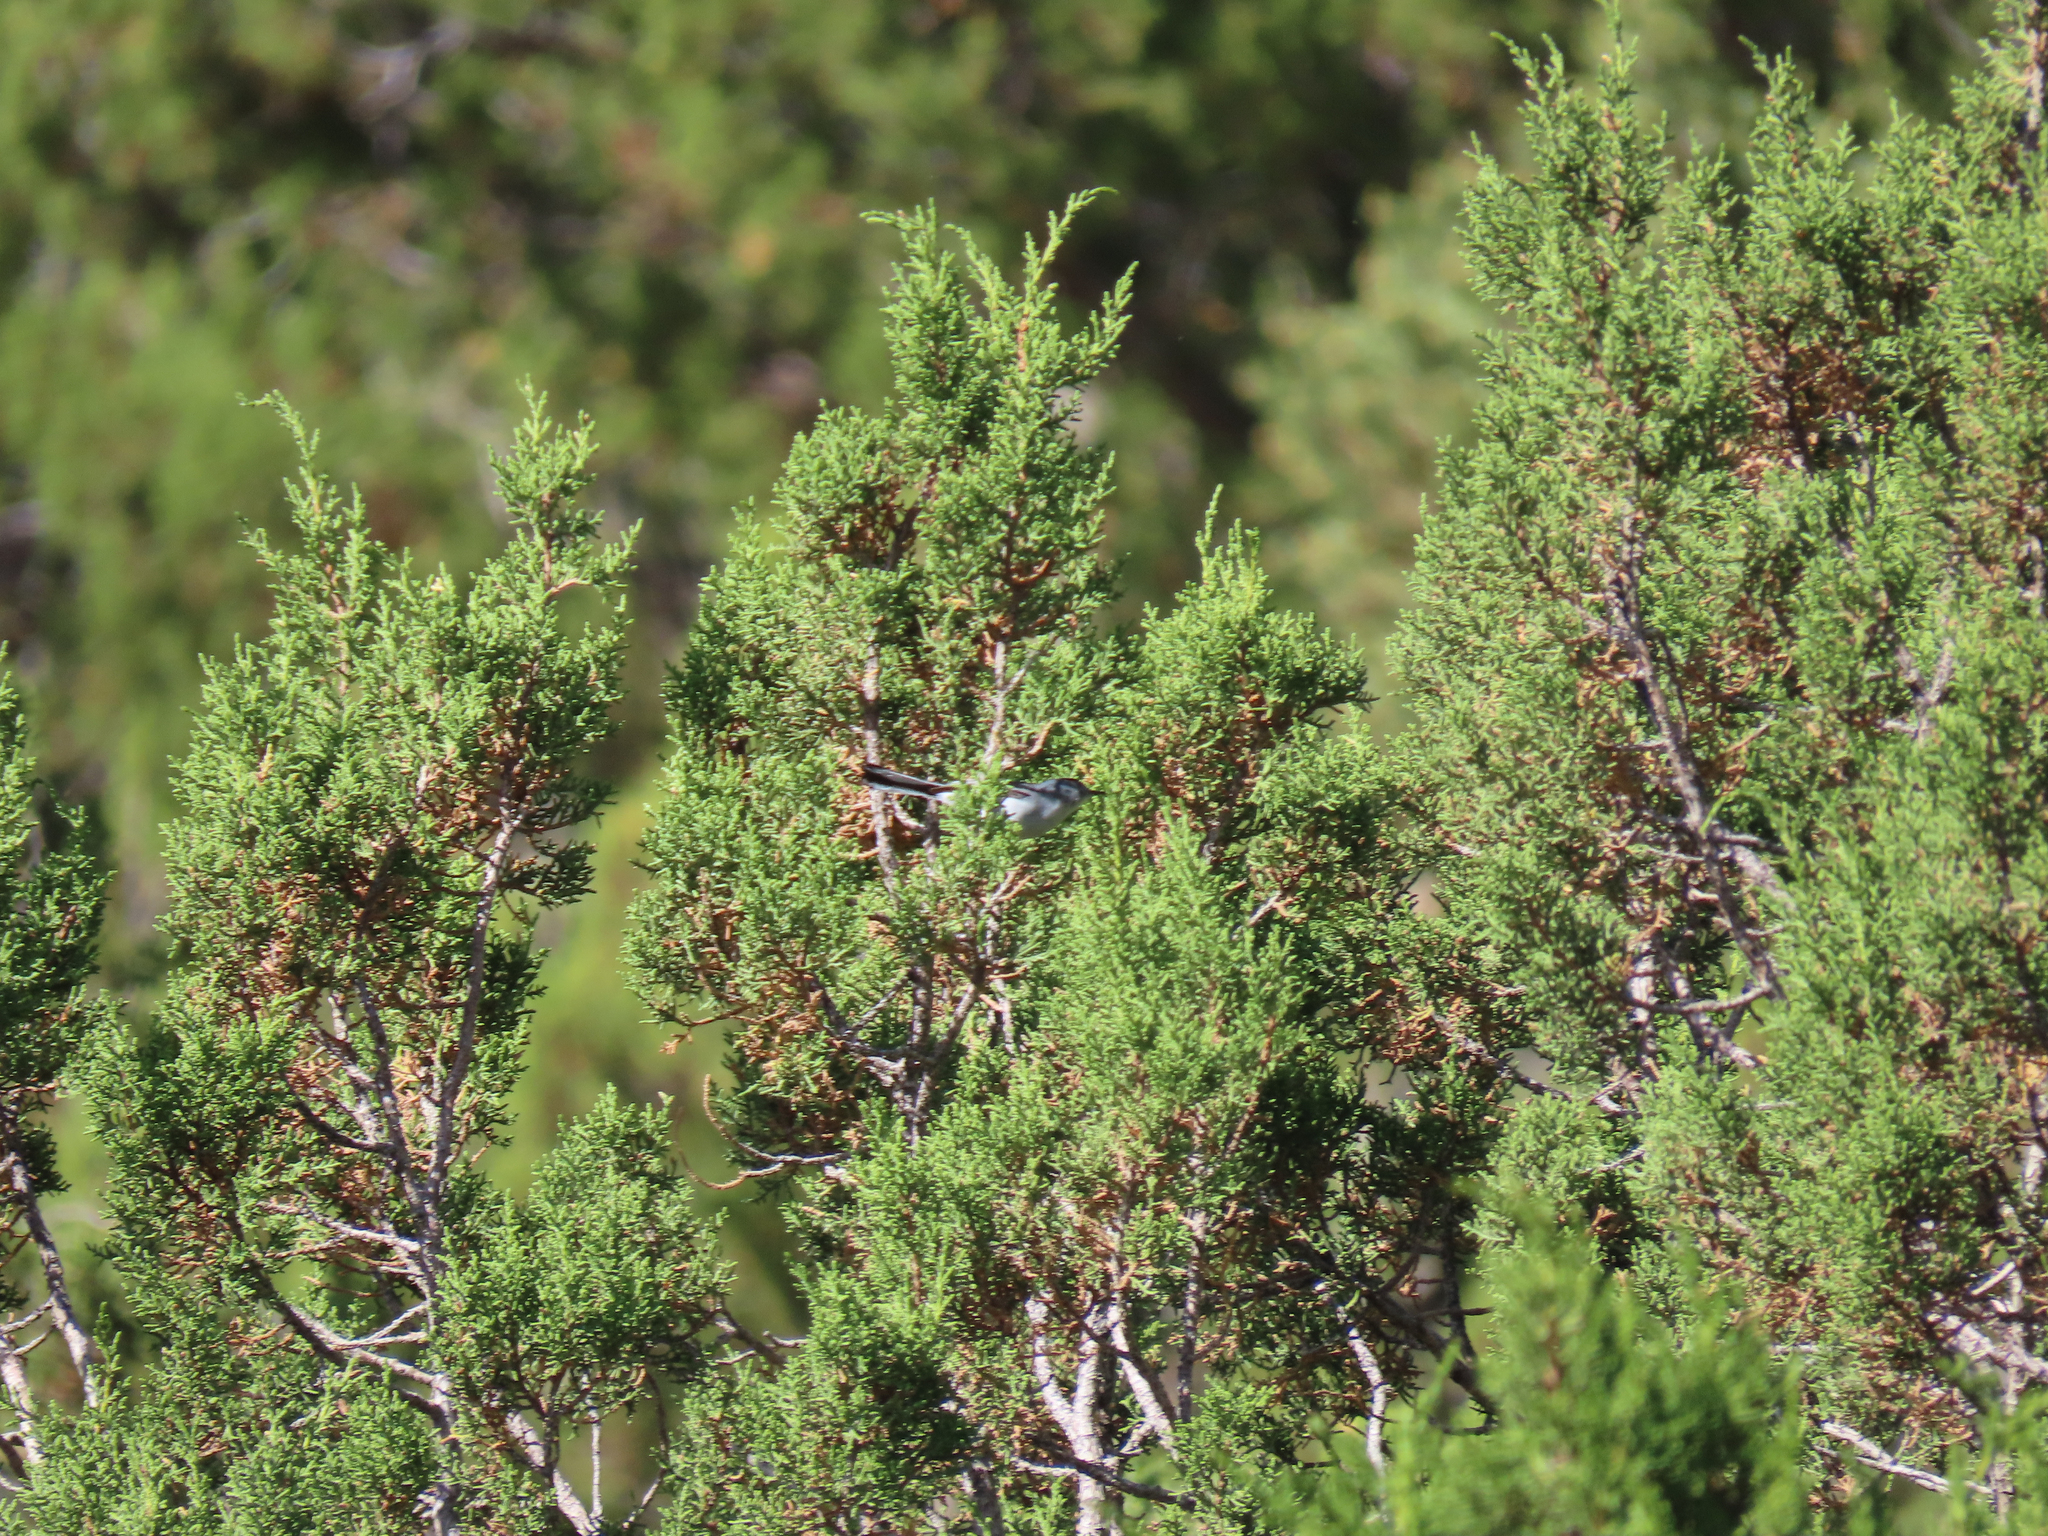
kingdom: Animalia
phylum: Chordata
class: Aves
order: Passeriformes
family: Polioptilidae
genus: Polioptila
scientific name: Polioptila caerulea
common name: Blue-gray gnatcatcher
